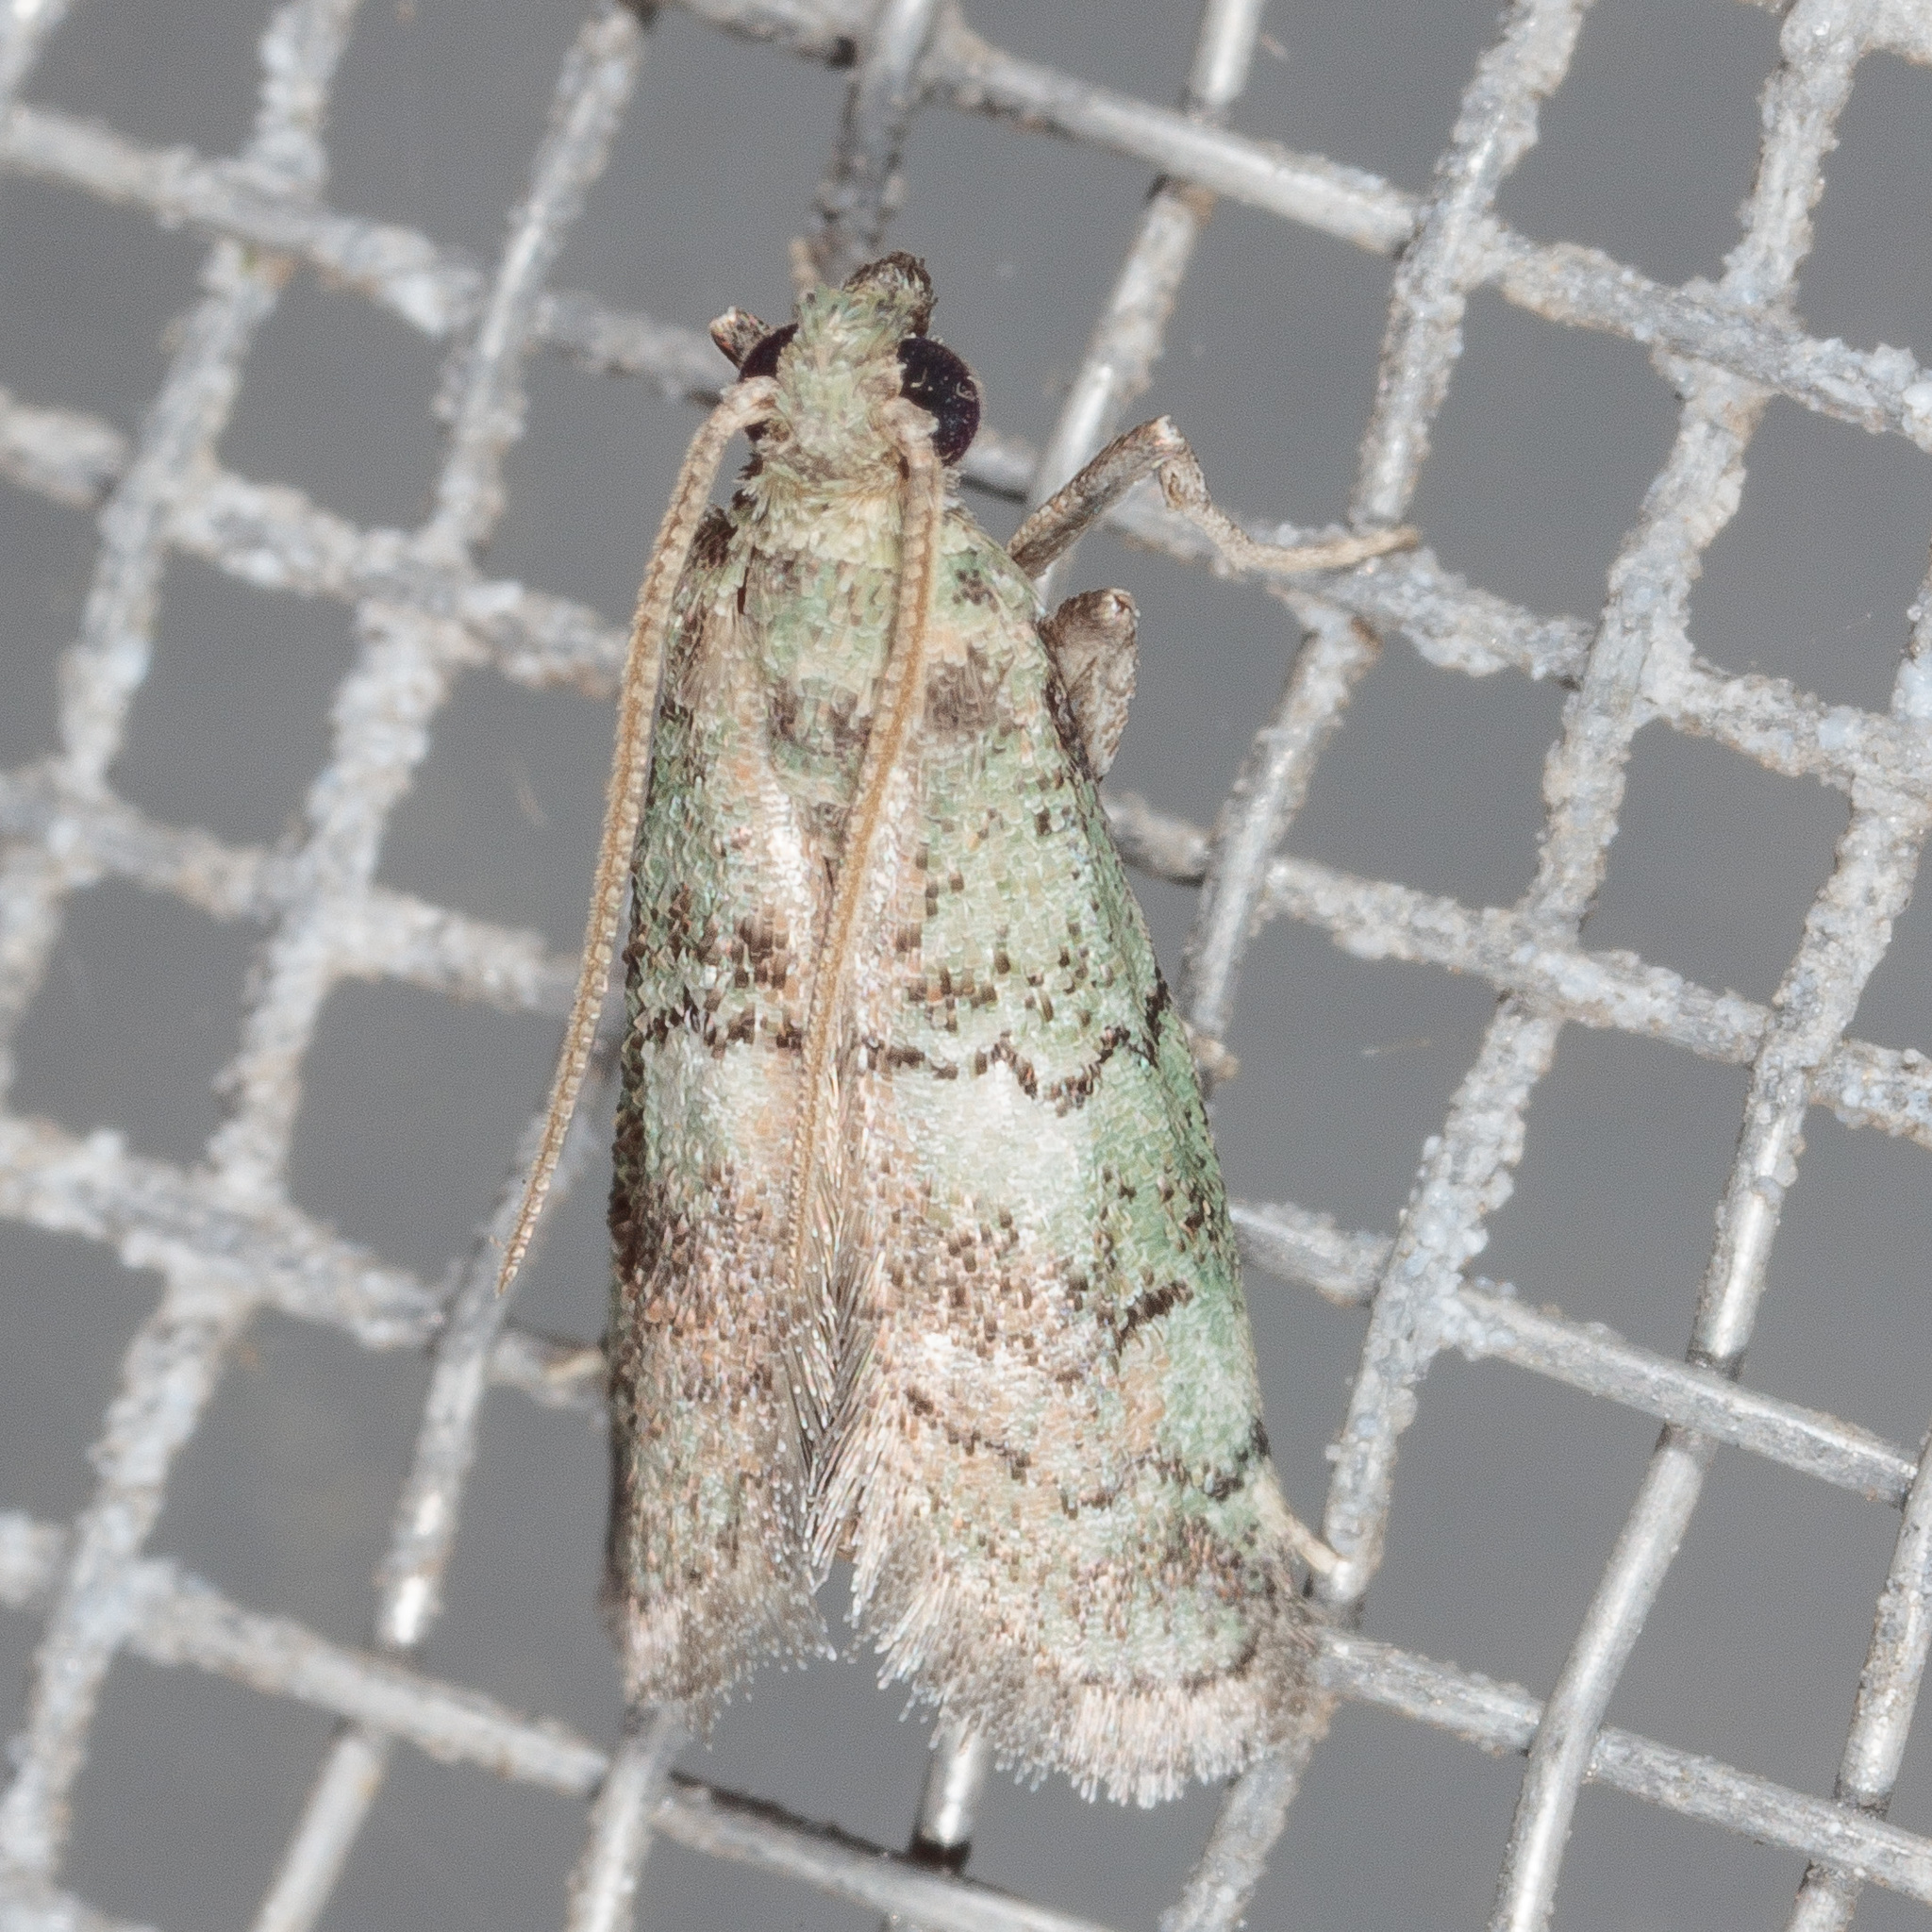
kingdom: Animalia
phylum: Arthropoda
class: Insecta
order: Lepidoptera
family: Pyralidae
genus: Cacotherapia
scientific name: Cacotherapia flexilinealis
